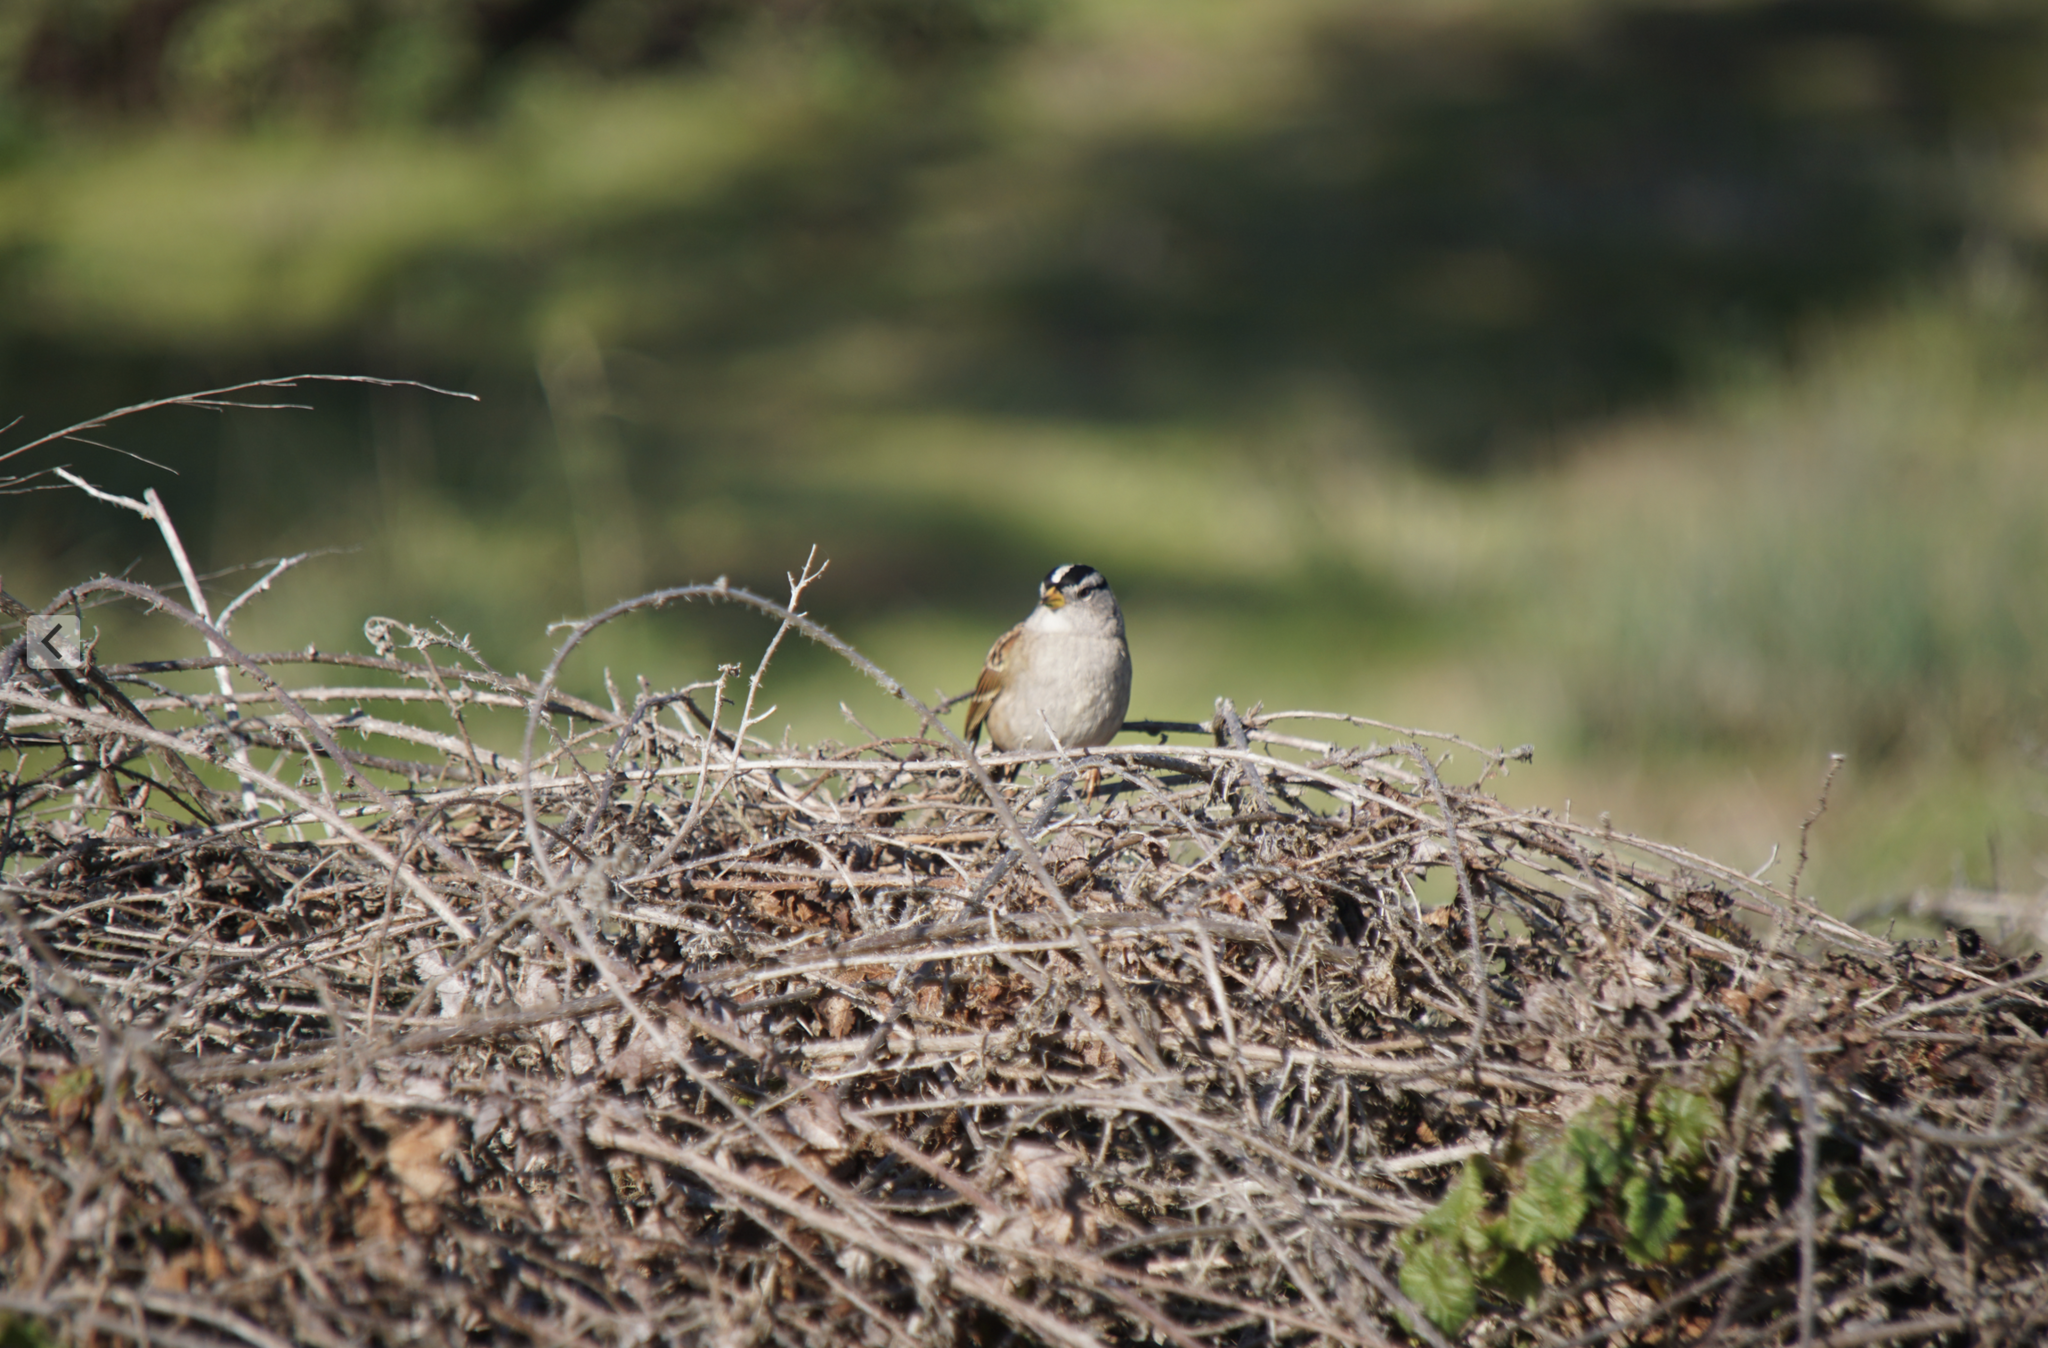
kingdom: Animalia
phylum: Chordata
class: Aves
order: Passeriformes
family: Passerellidae
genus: Zonotrichia
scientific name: Zonotrichia leucophrys
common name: White-crowned sparrow
